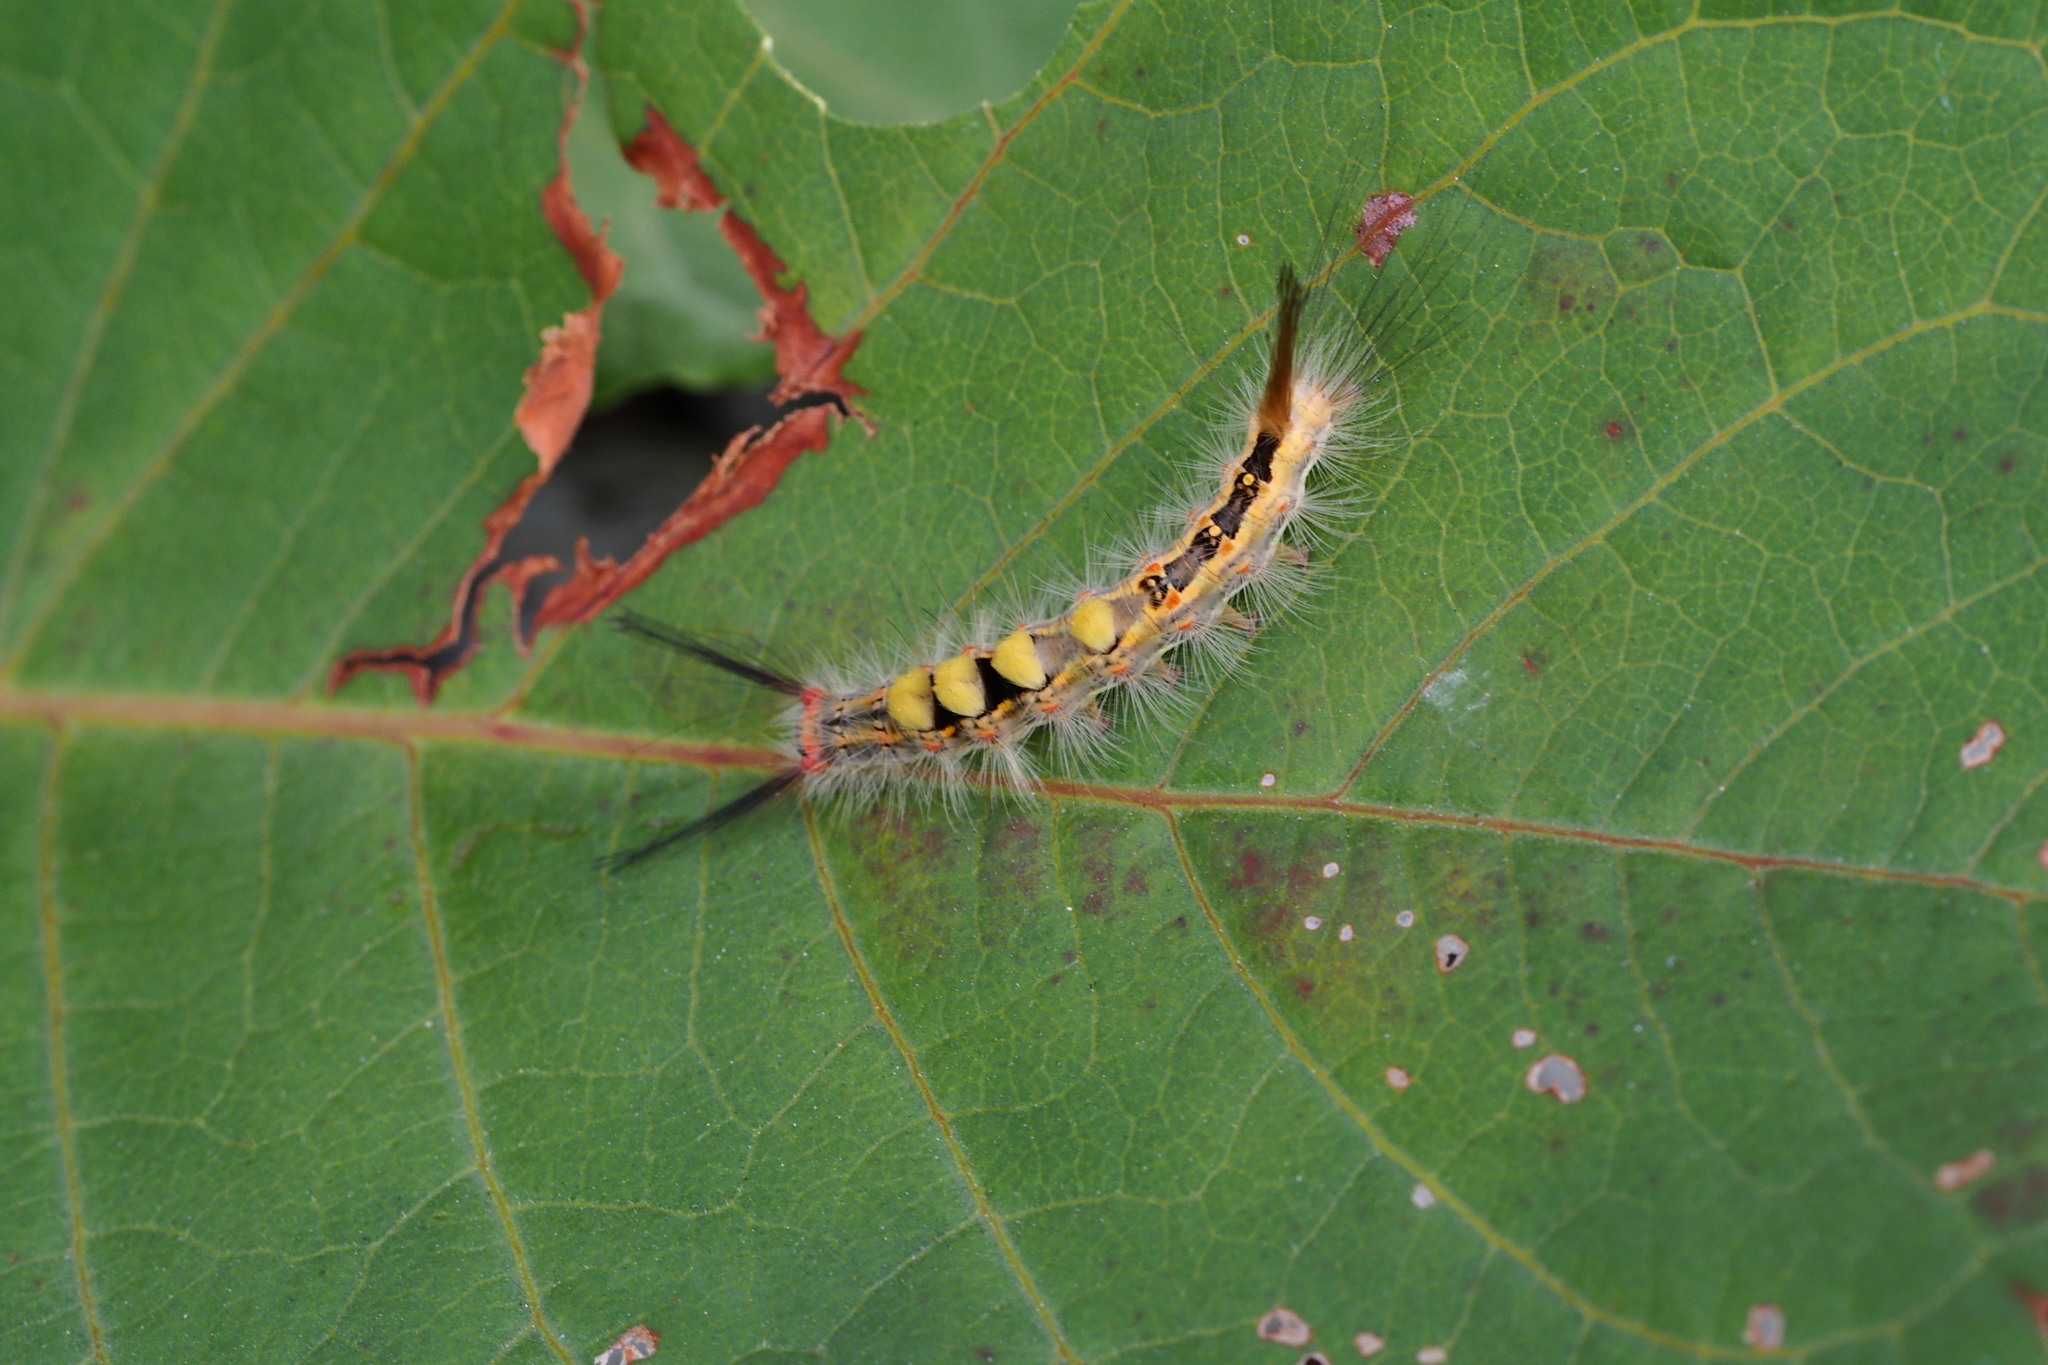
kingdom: Animalia
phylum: Arthropoda
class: Insecta
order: Lepidoptera
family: Erebidae
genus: Orgyia
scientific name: Orgyia thyellina
